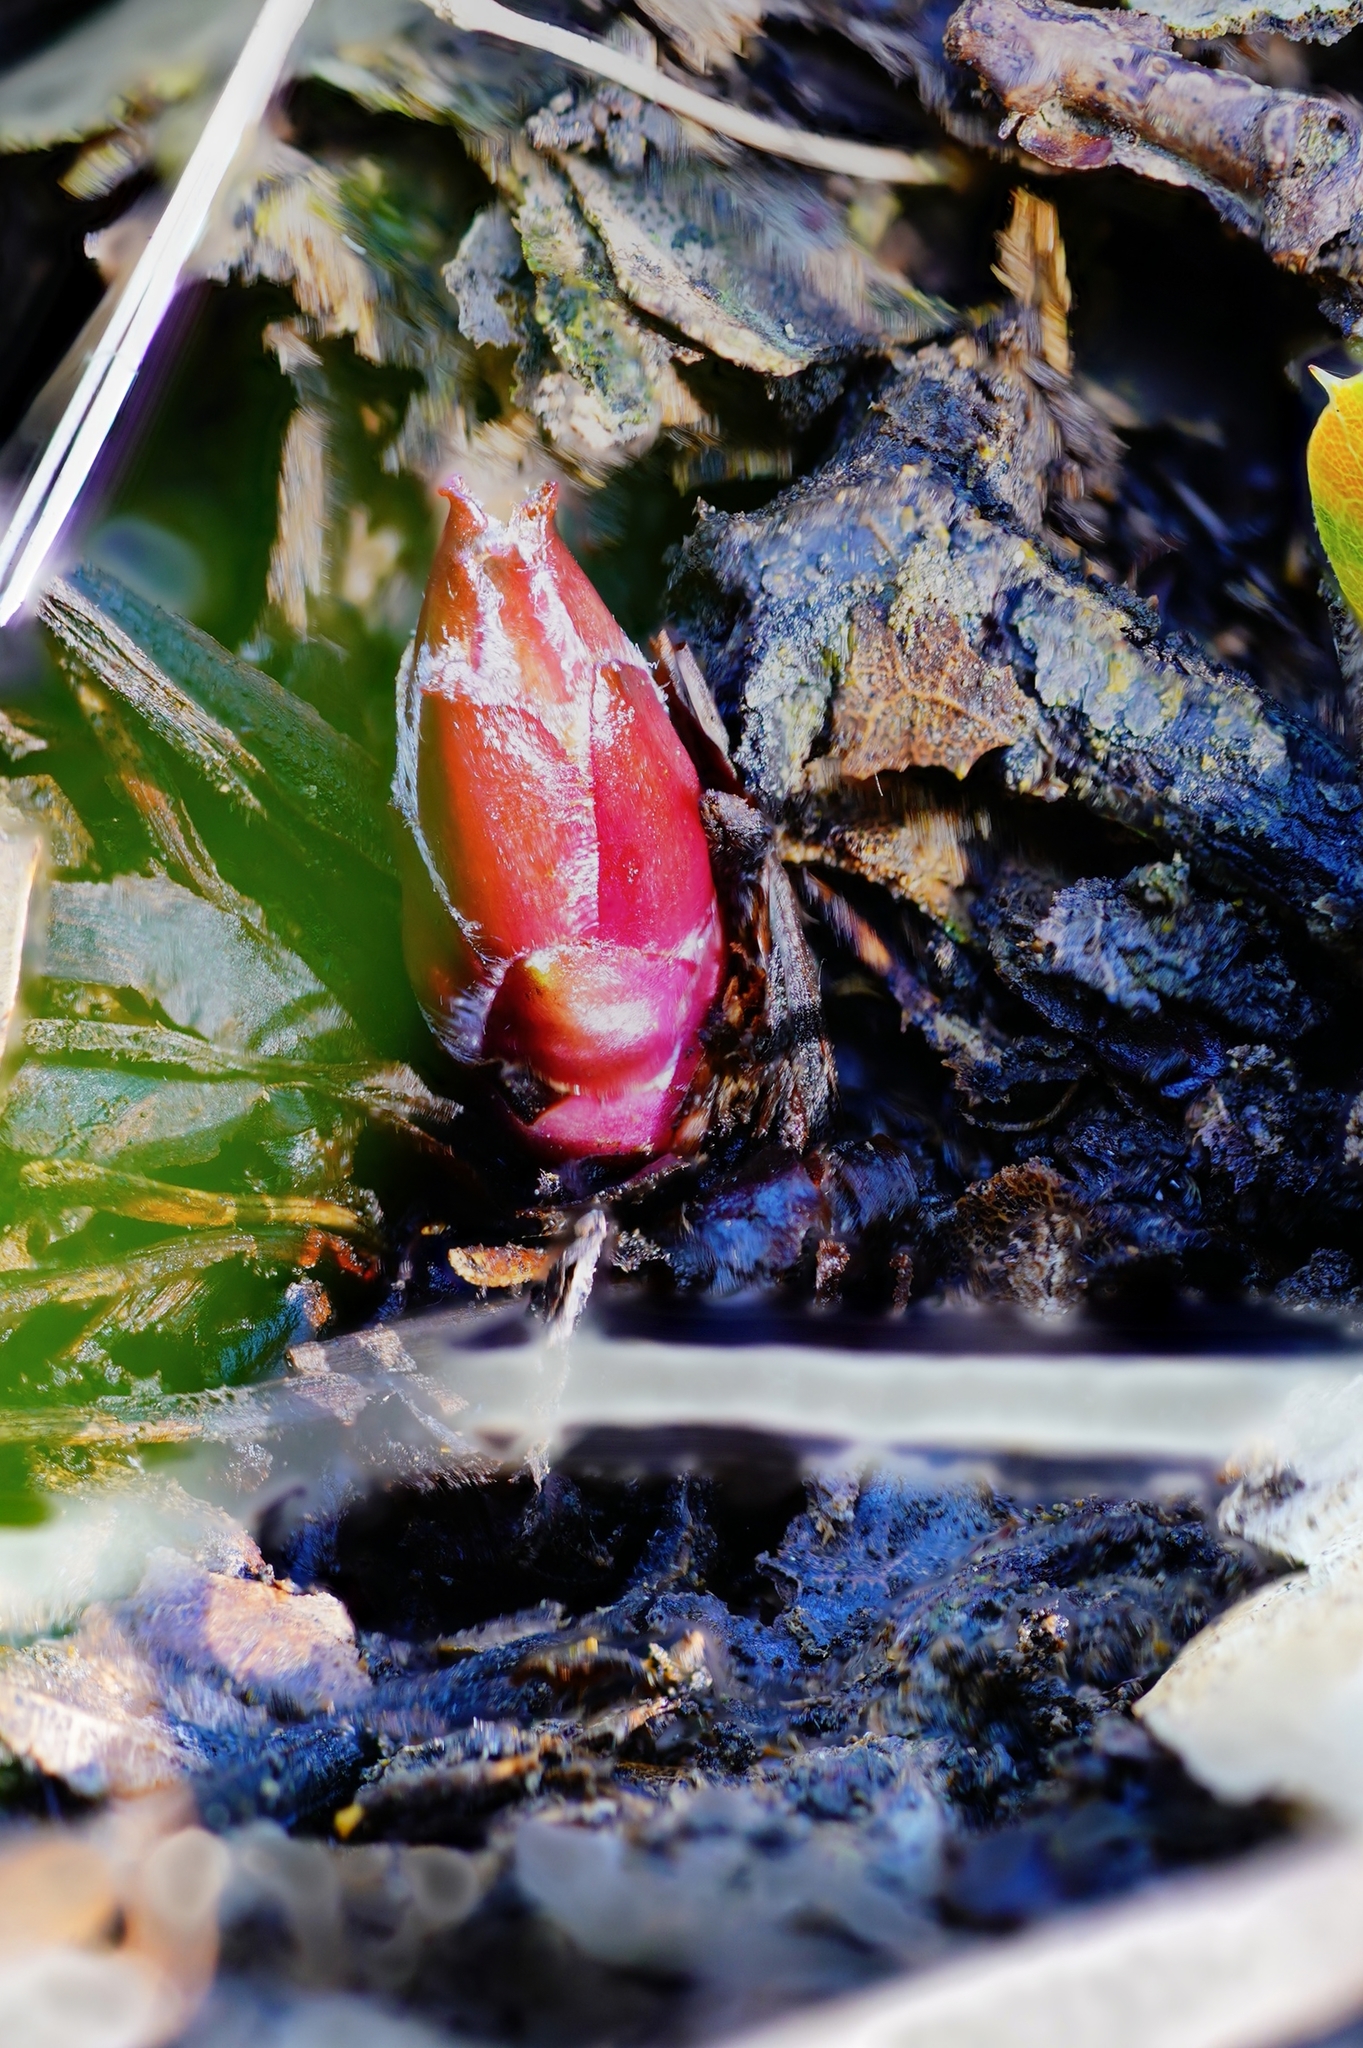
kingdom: Plantae
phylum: Tracheophyta
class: Magnoliopsida
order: Lamiales
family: Orobanchaceae
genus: Pedicularis
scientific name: Pedicularis densiflora
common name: Indian warrior
